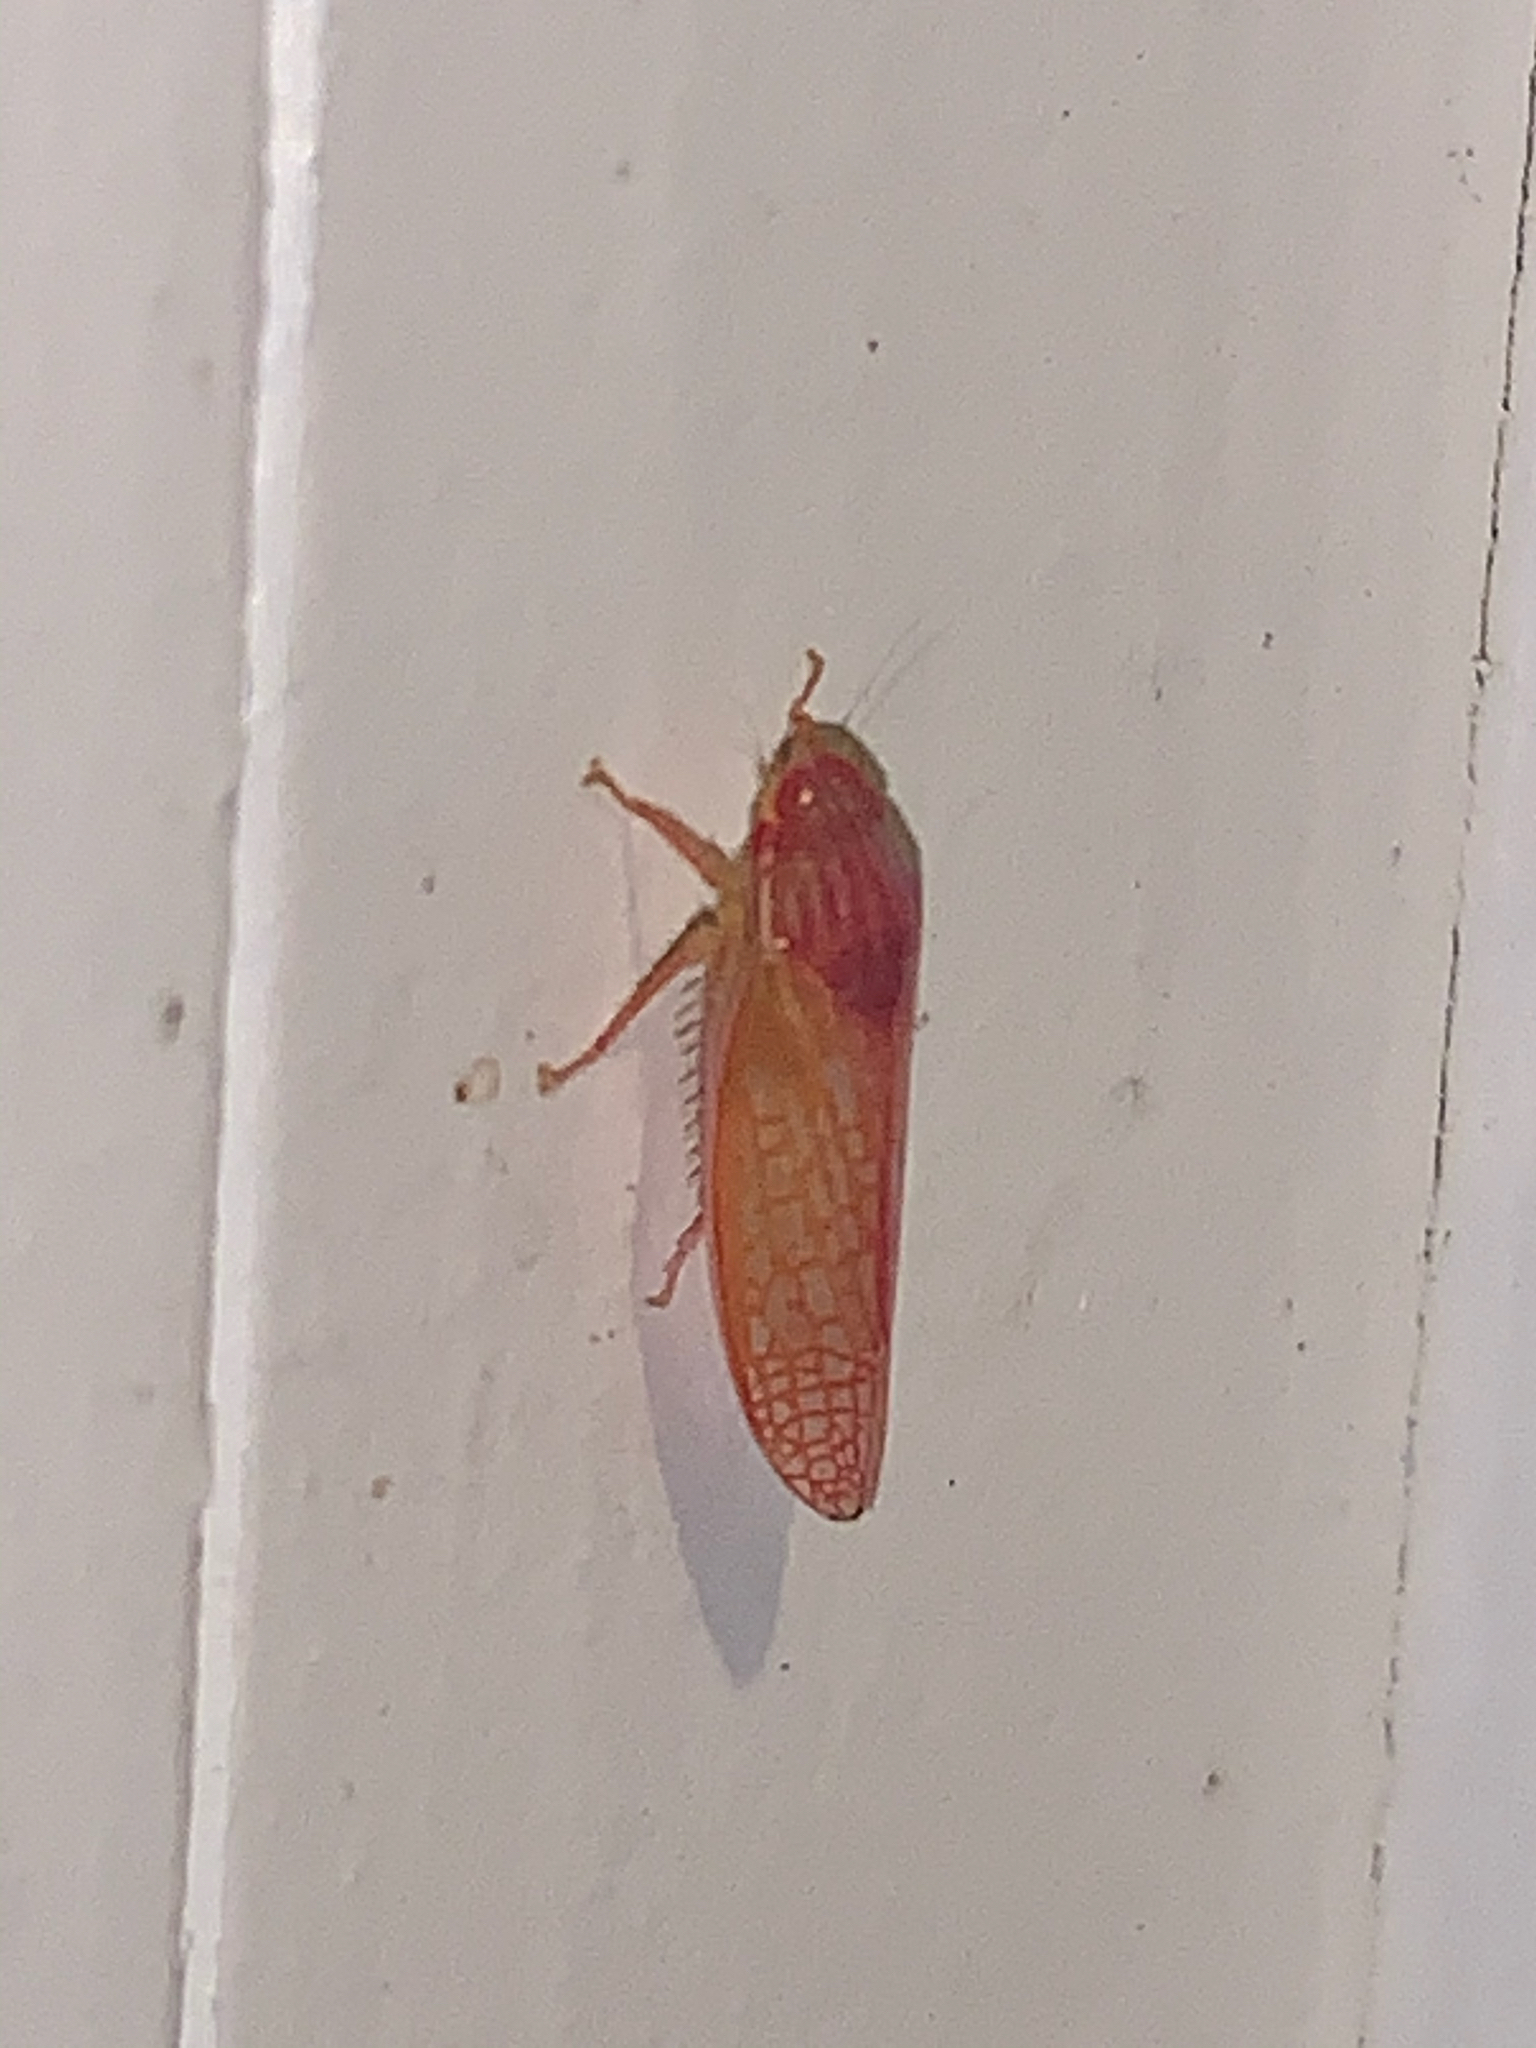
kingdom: Animalia
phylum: Arthropoda
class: Insecta
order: Hemiptera
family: Cicadellidae
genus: Gyponana
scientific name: Gyponana gladia
